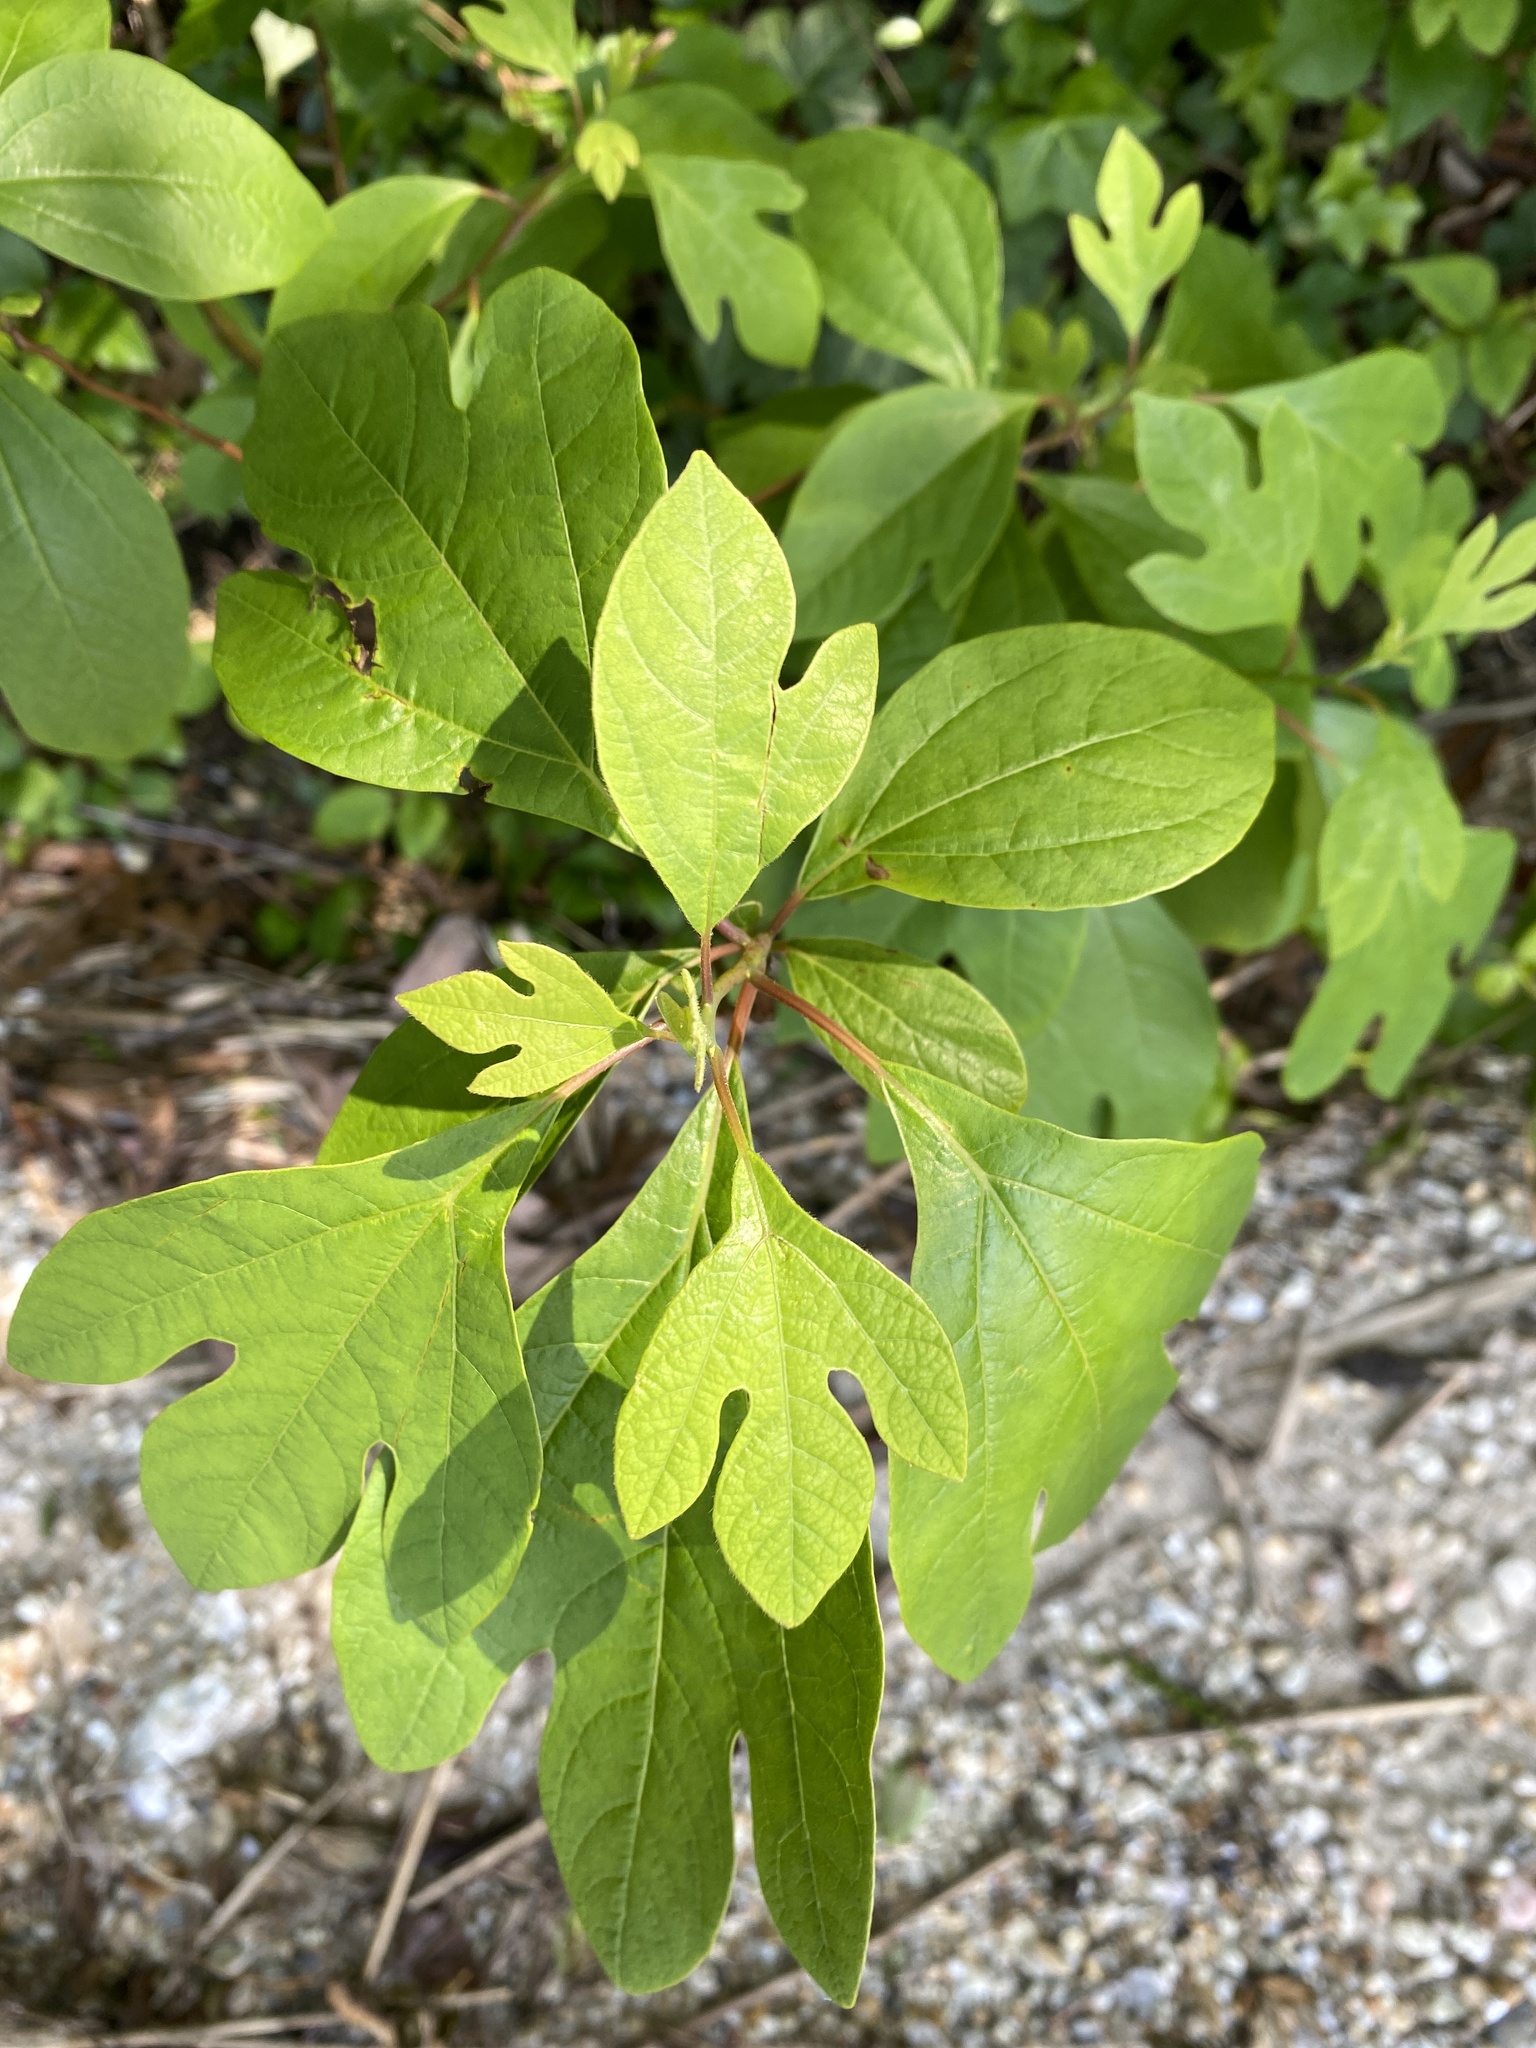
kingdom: Plantae
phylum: Tracheophyta
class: Magnoliopsida
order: Laurales
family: Lauraceae
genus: Sassafras
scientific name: Sassafras albidum
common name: Sassafras
